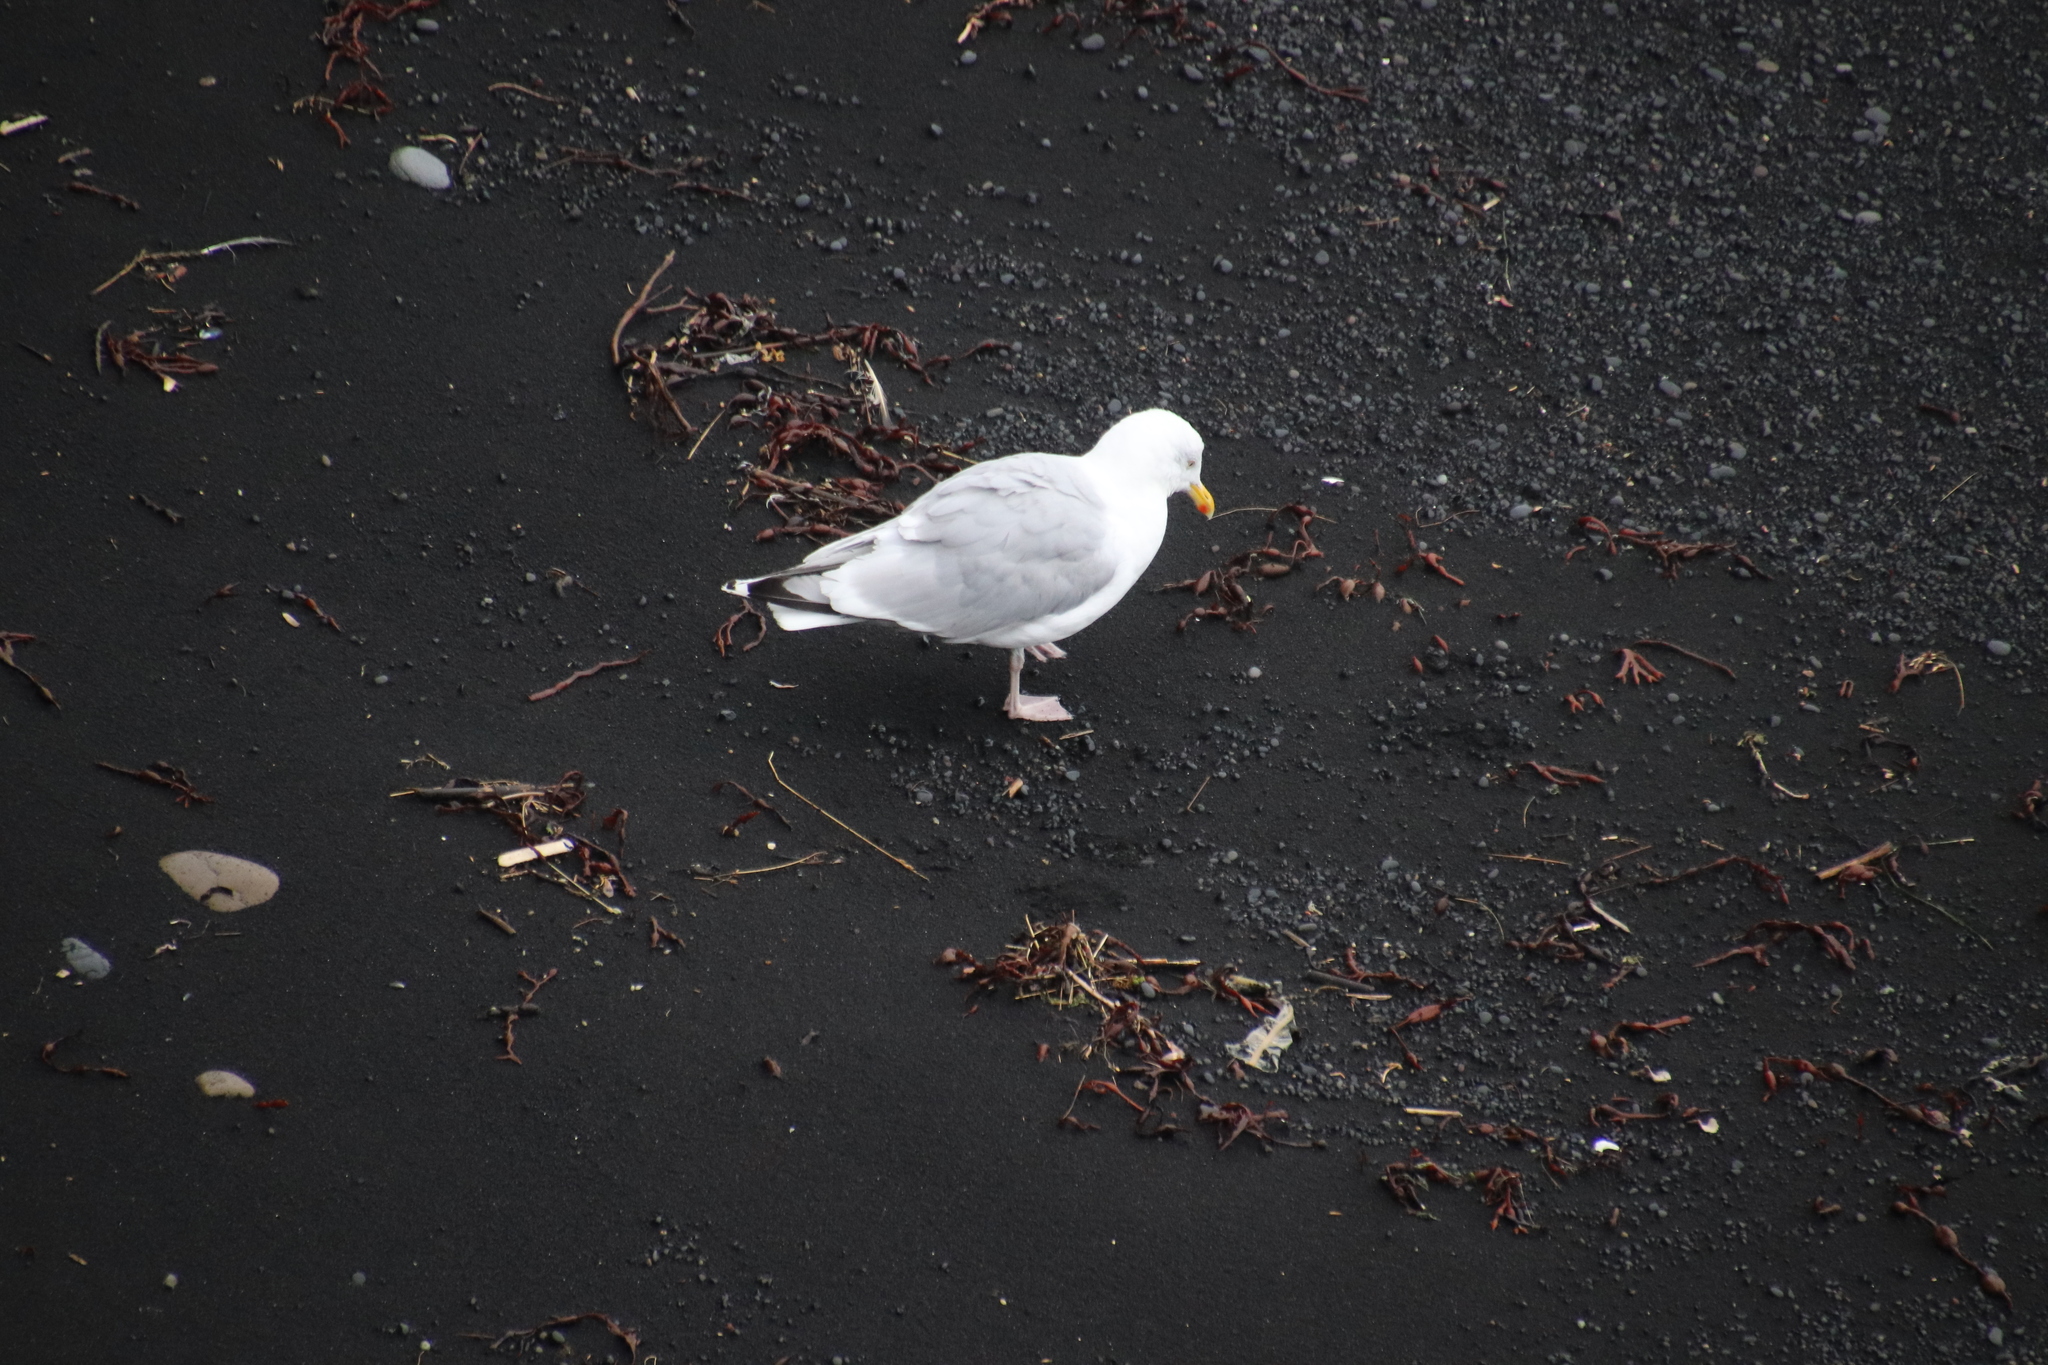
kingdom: Animalia
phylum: Chordata
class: Aves
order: Charadriiformes
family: Laridae
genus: Larus
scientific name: Larus argentatus
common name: Herring gull
